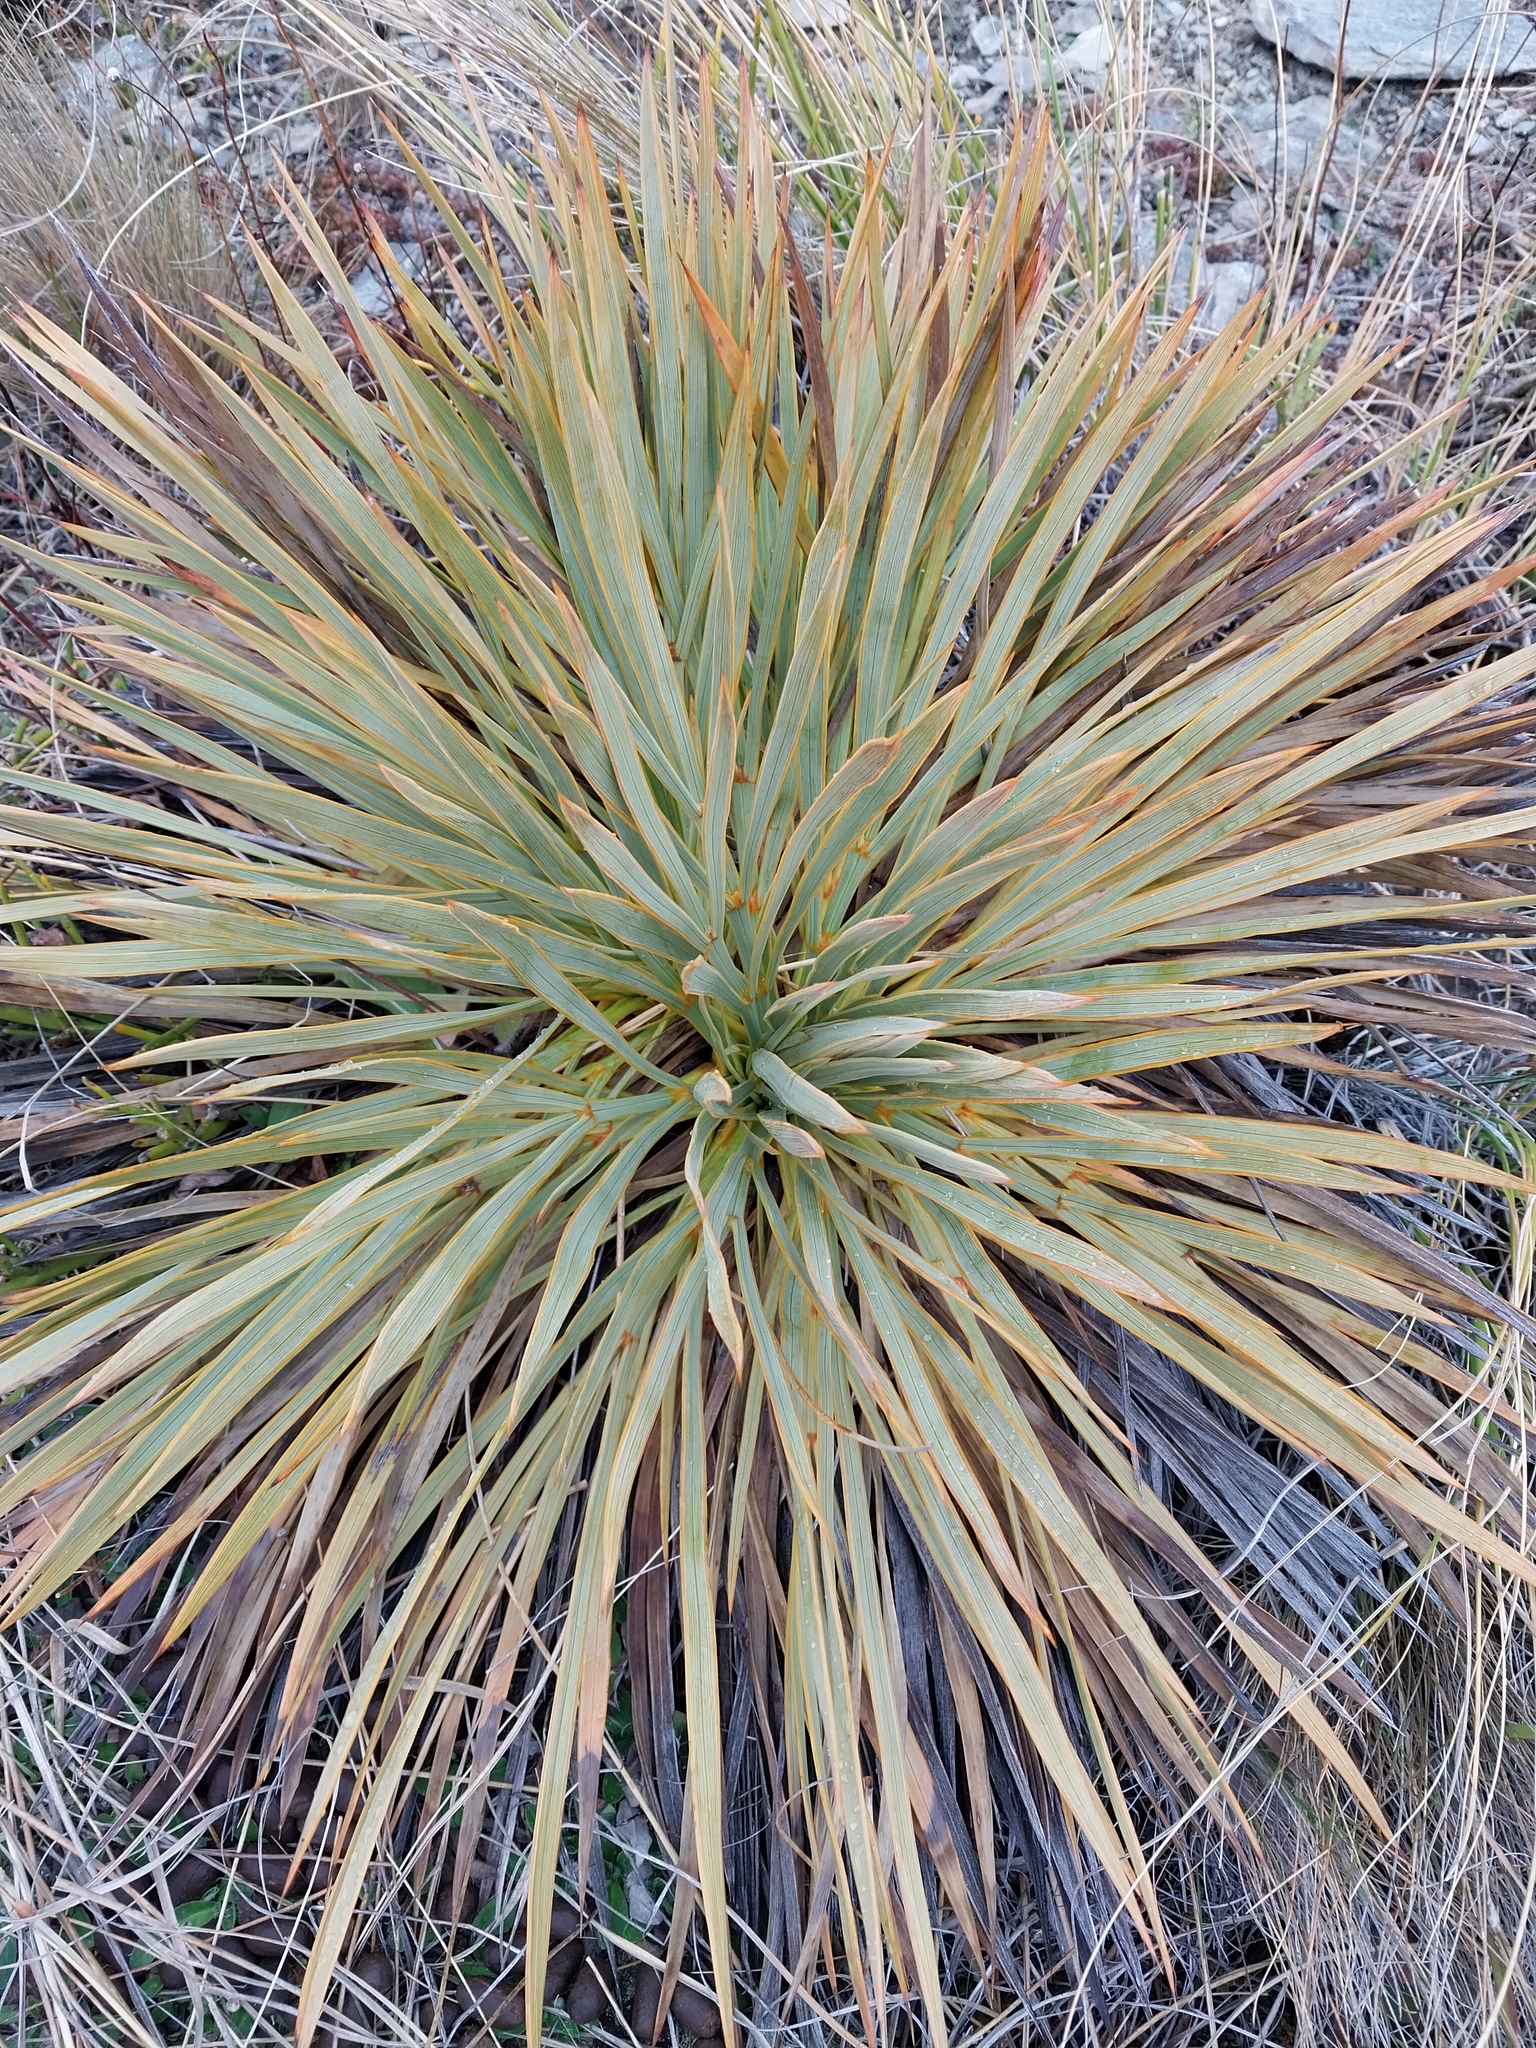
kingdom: Plantae
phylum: Tracheophyta
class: Magnoliopsida
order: Apiales
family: Apiaceae
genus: Aciphylla
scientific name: Aciphylla aurea
